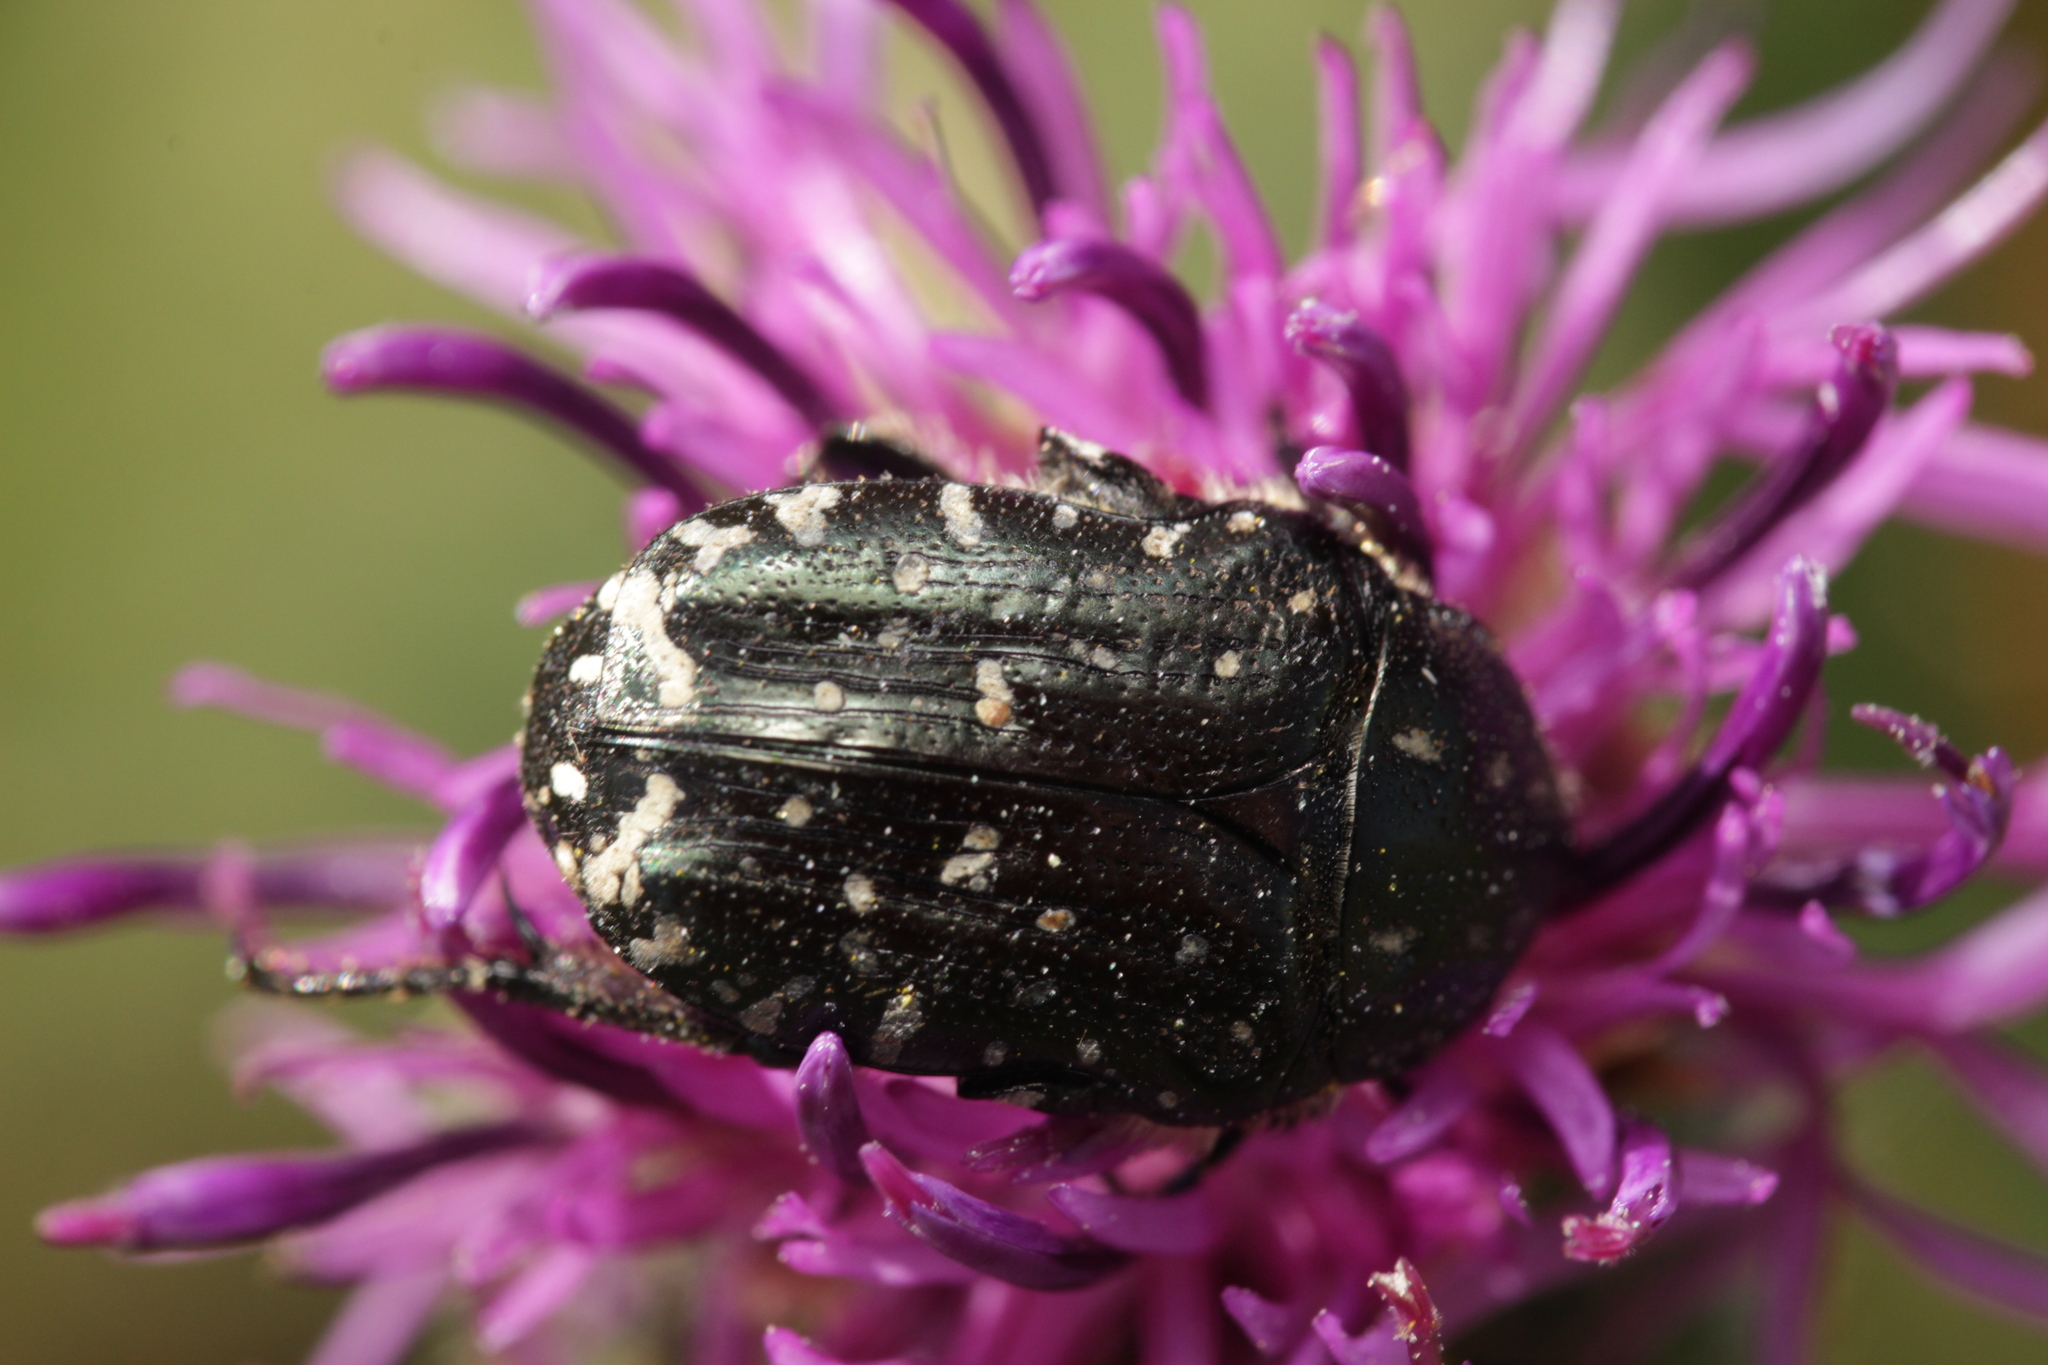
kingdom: Animalia
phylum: Arthropoda
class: Insecta
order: Coleoptera
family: Scarabaeidae
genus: Oxythyrea
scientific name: Oxythyrea funesta
